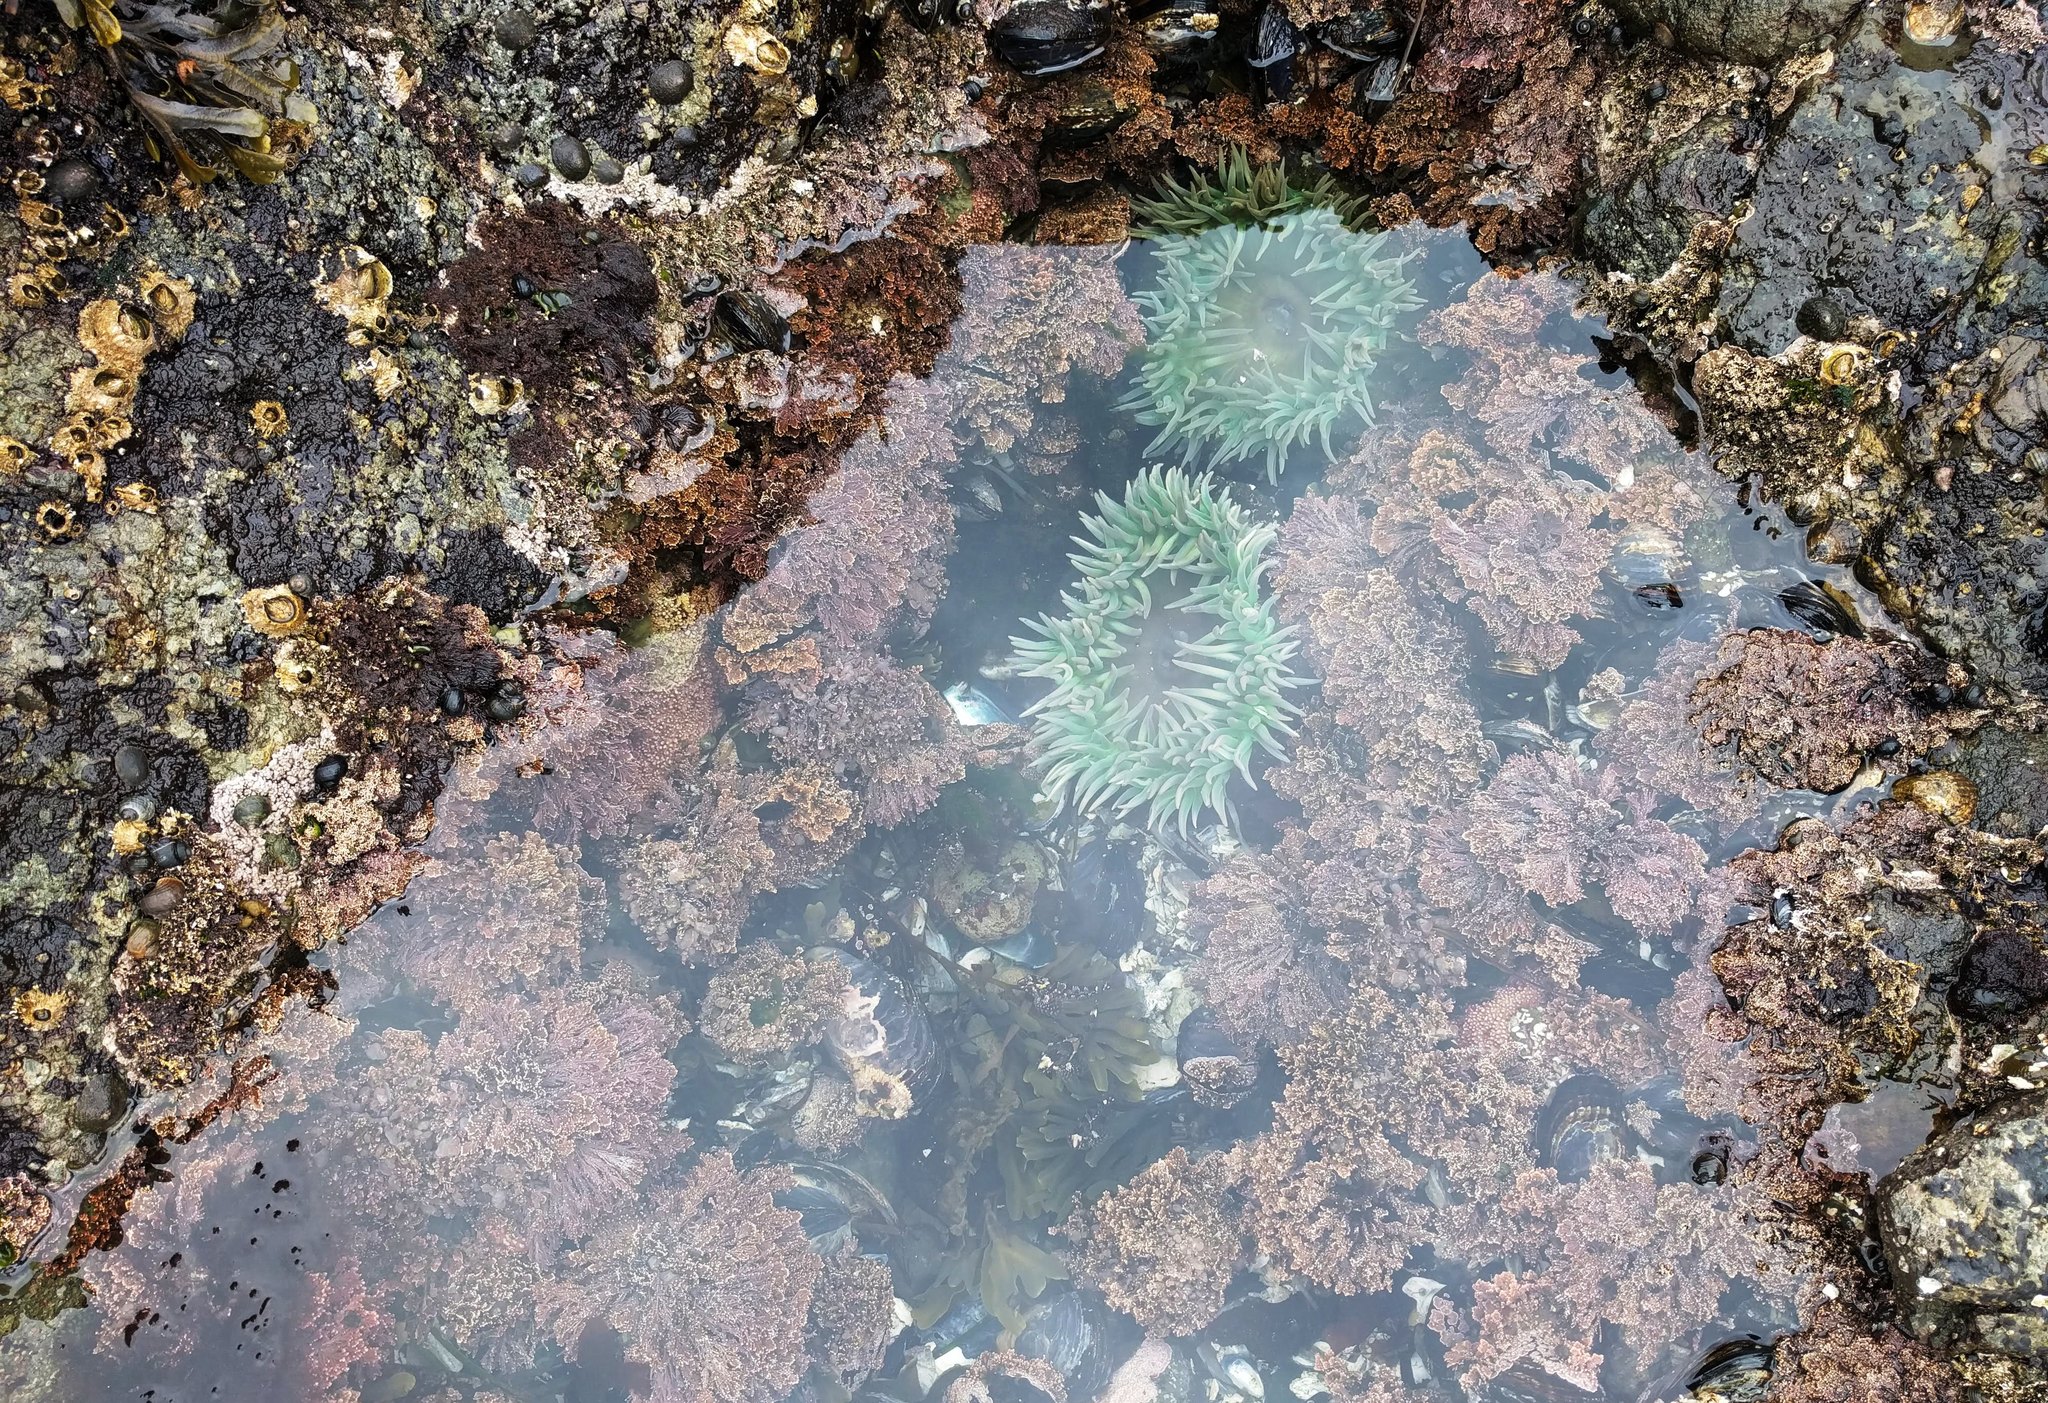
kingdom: Animalia
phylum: Cnidaria
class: Anthozoa
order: Actiniaria
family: Actiniidae
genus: Anthopleura
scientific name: Anthopleura xanthogrammica
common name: Giant green anemone
